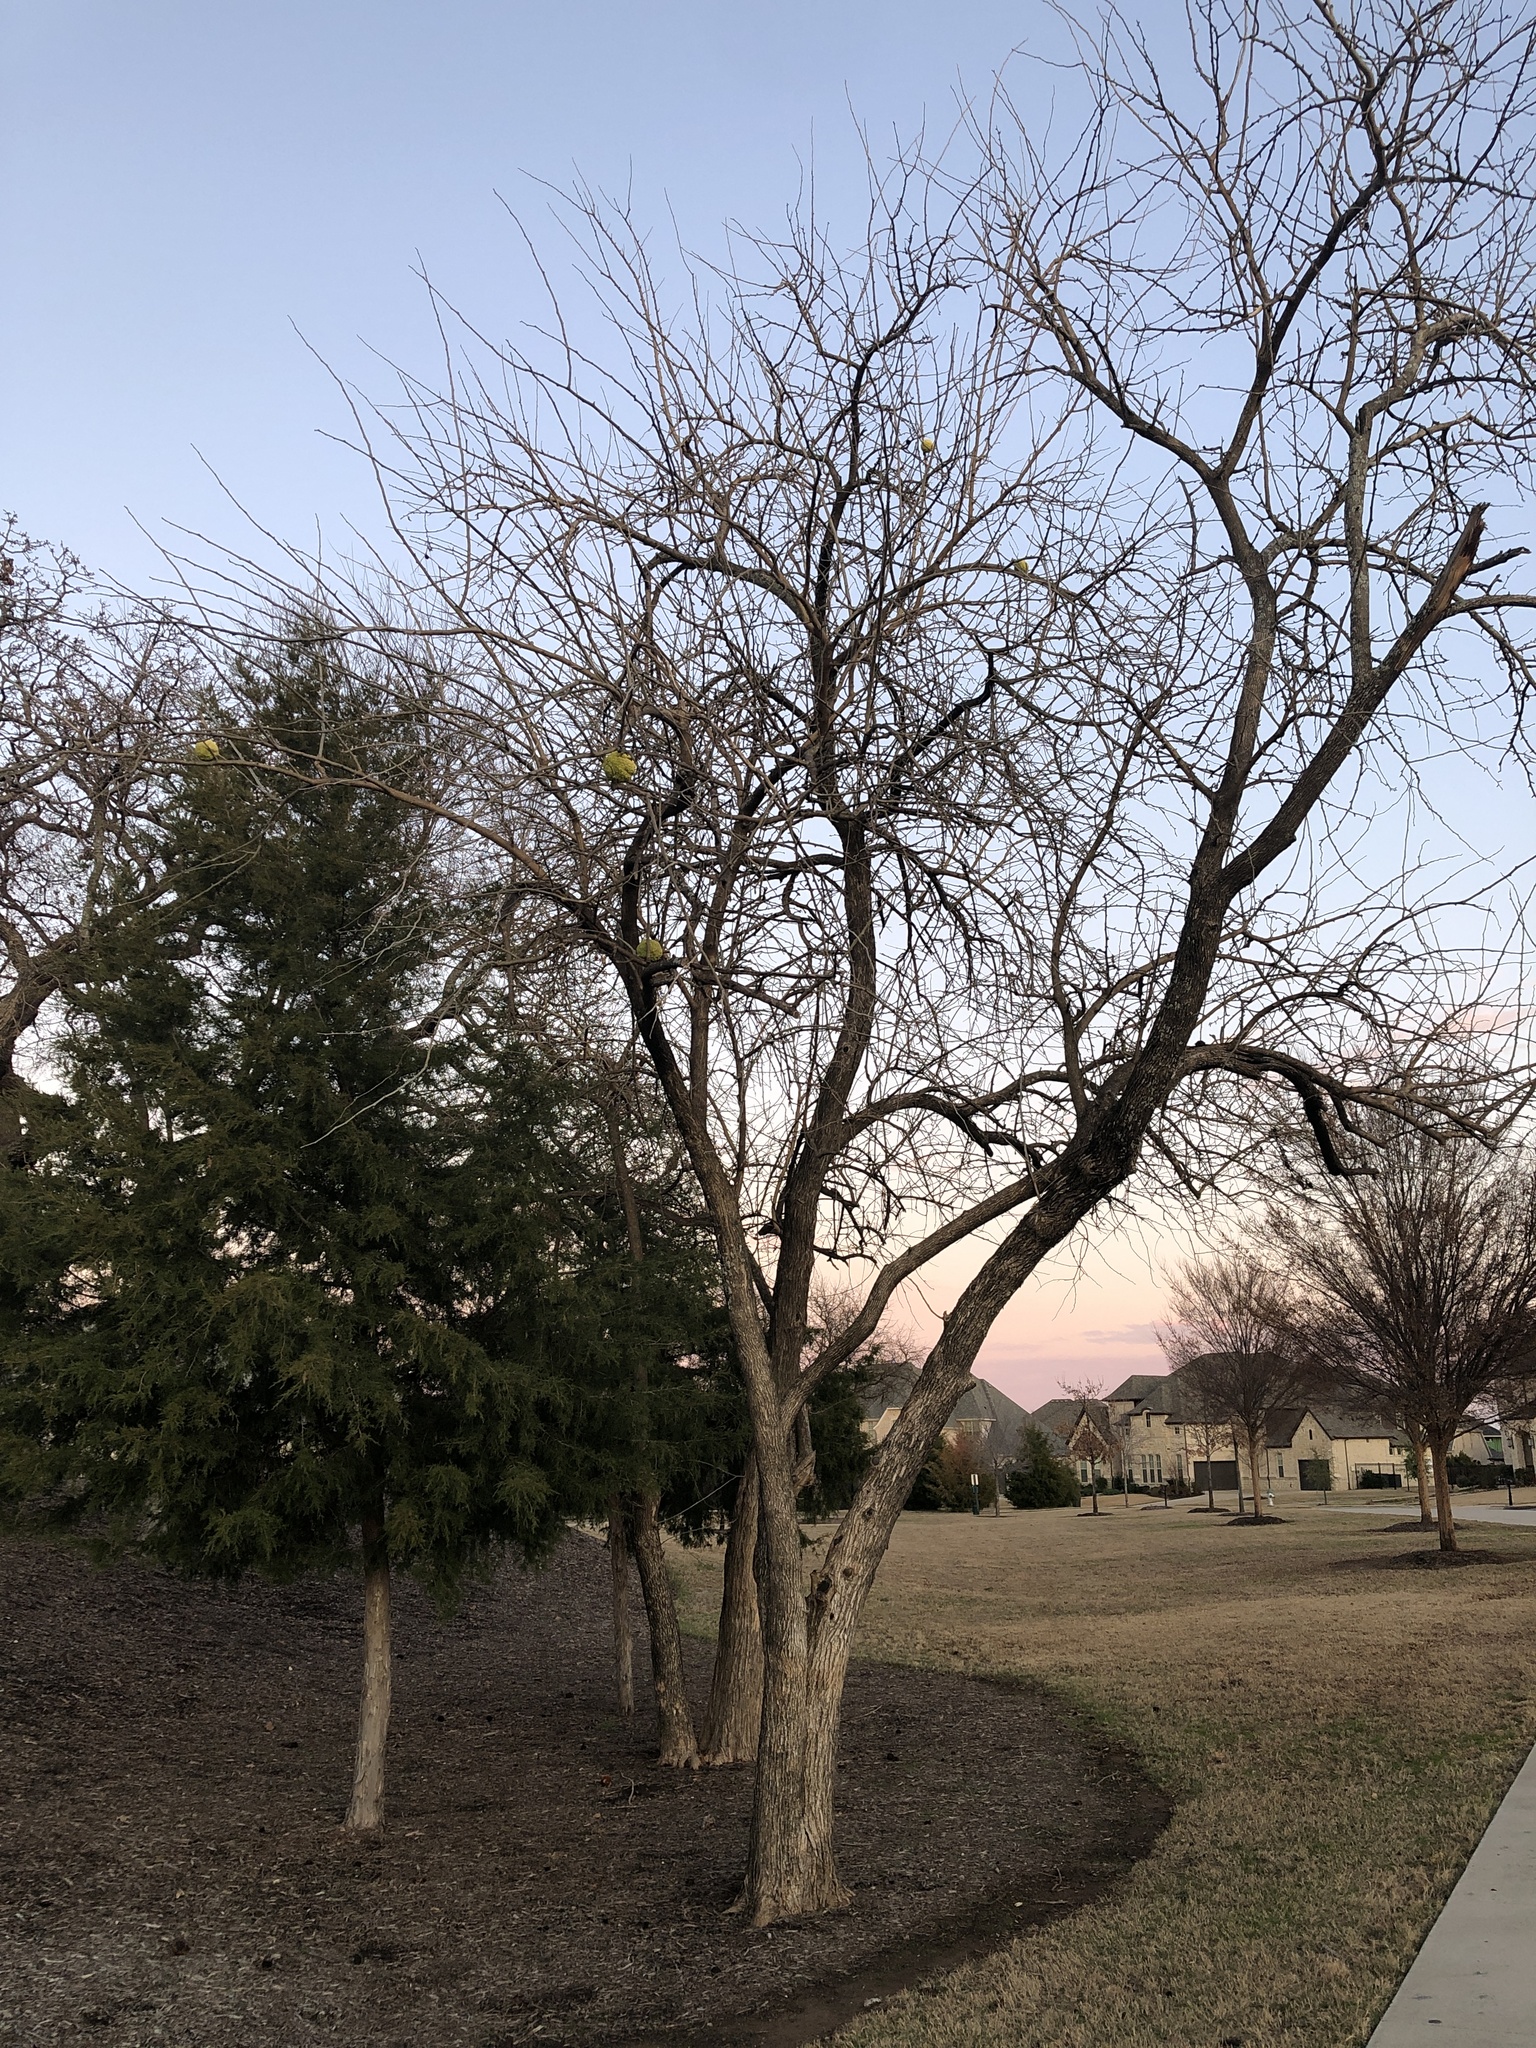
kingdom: Plantae
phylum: Tracheophyta
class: Magnoliopsida
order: Rosales
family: Moraceae
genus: Maclura
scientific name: Maclura pomifera
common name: Osage-orange
